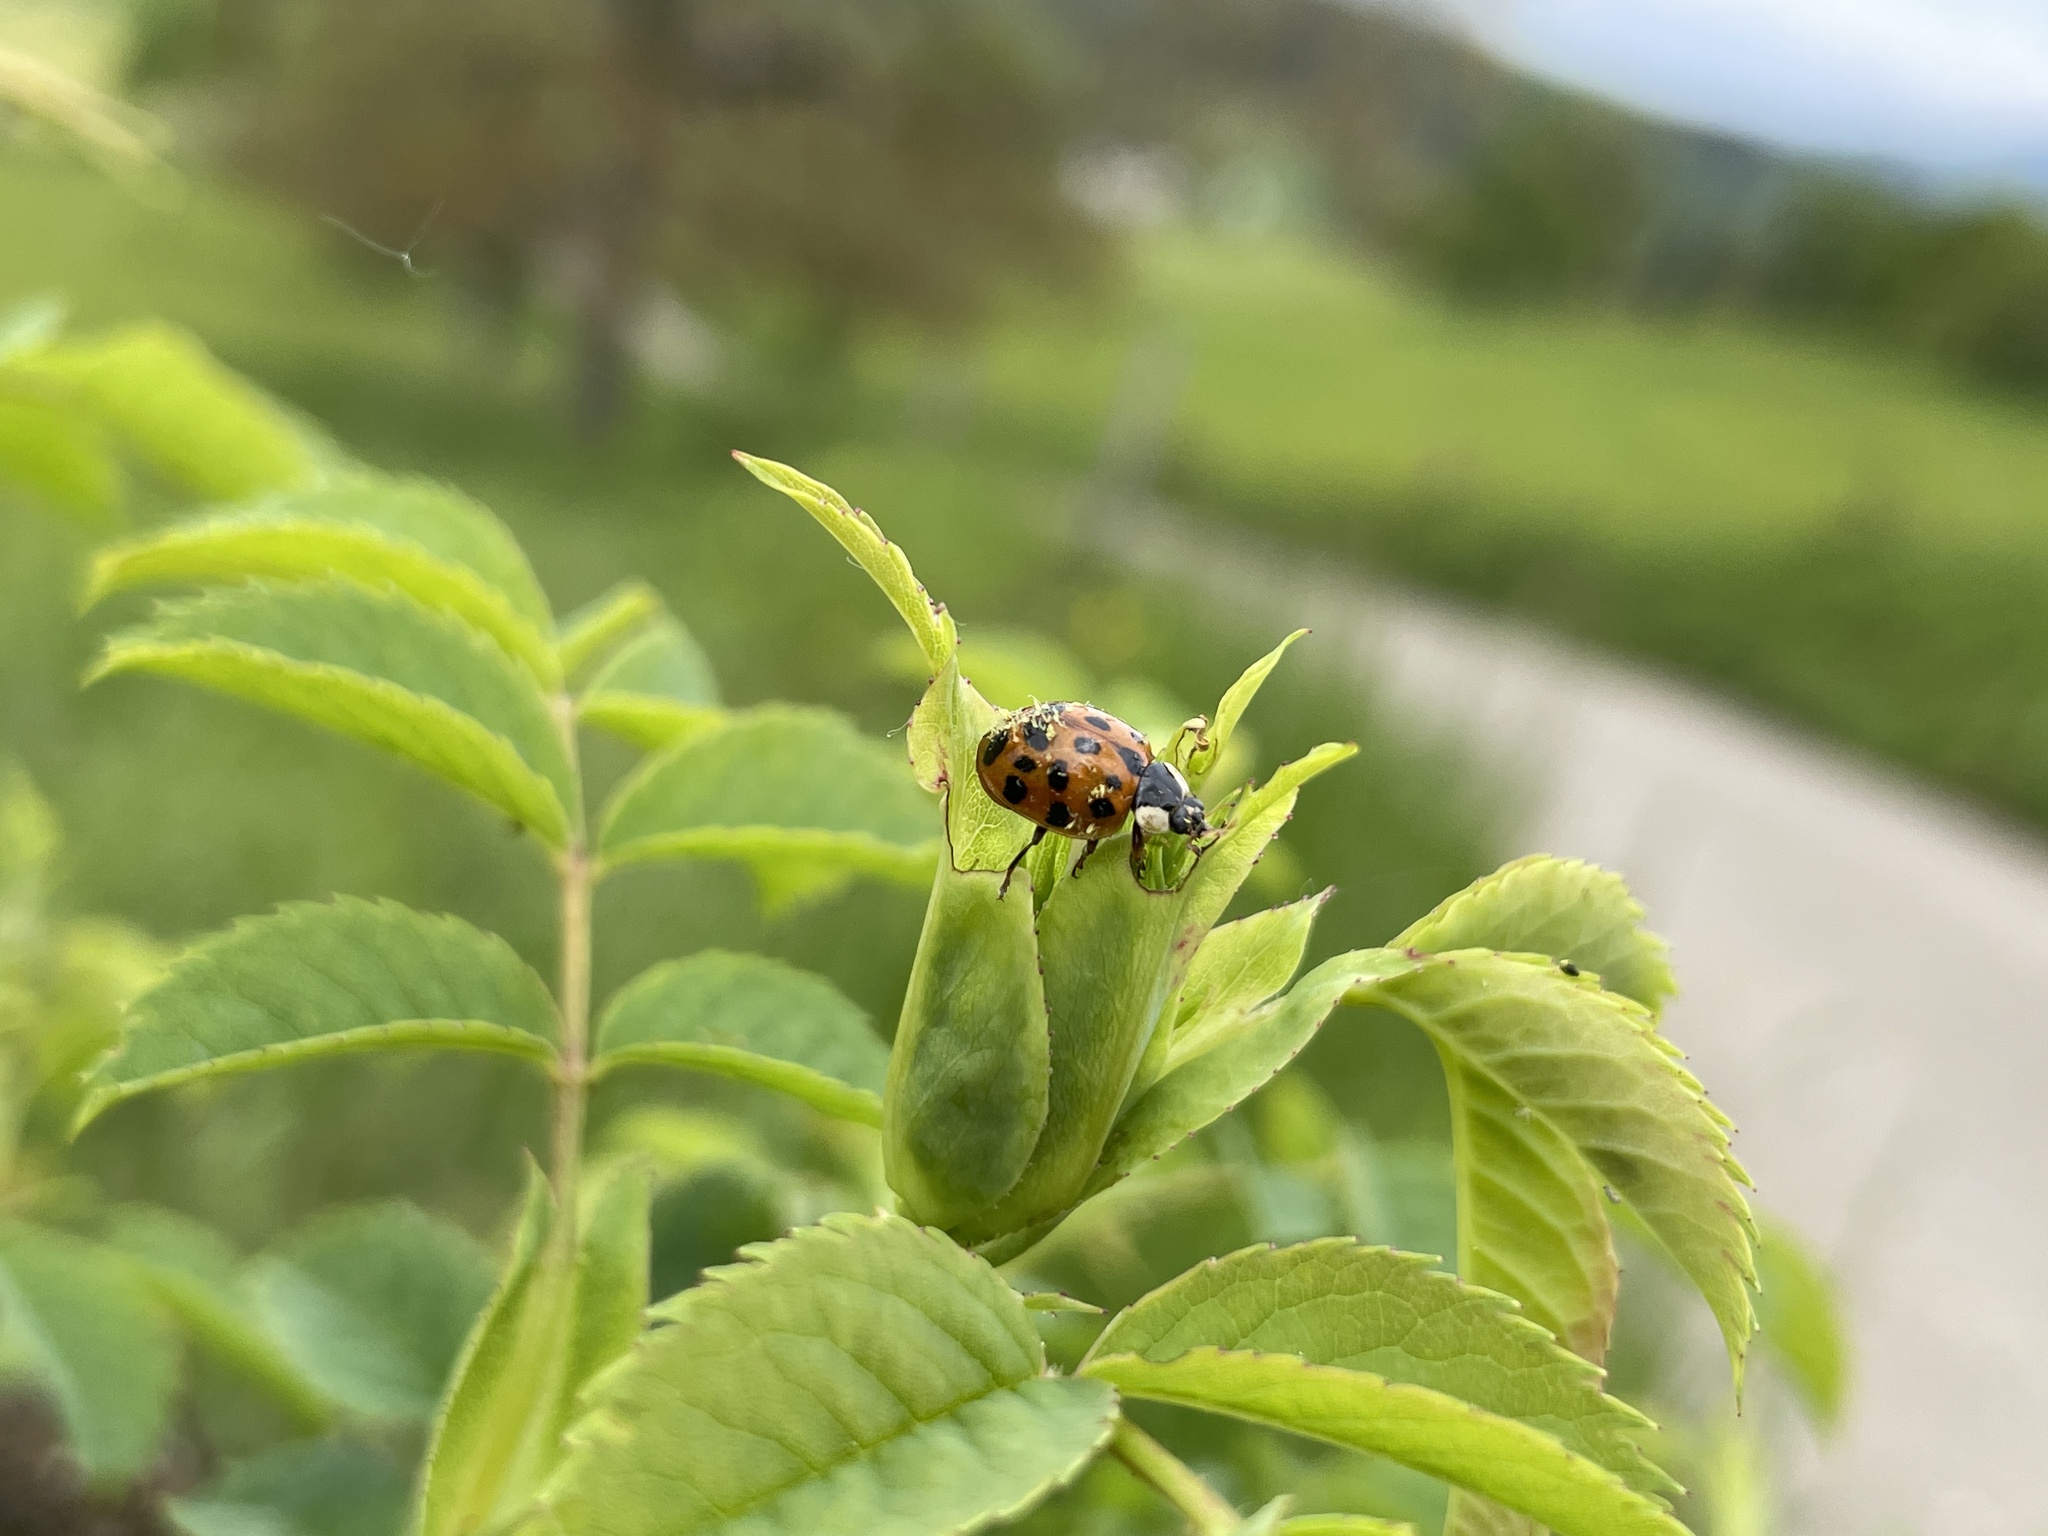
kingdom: Fungi
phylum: Ascomycota
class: Laboulbeniomycetes
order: Laboulbeniales
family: Laboulbeniaceae
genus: Hesperomyces
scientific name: Hesperomyces harmoniae
